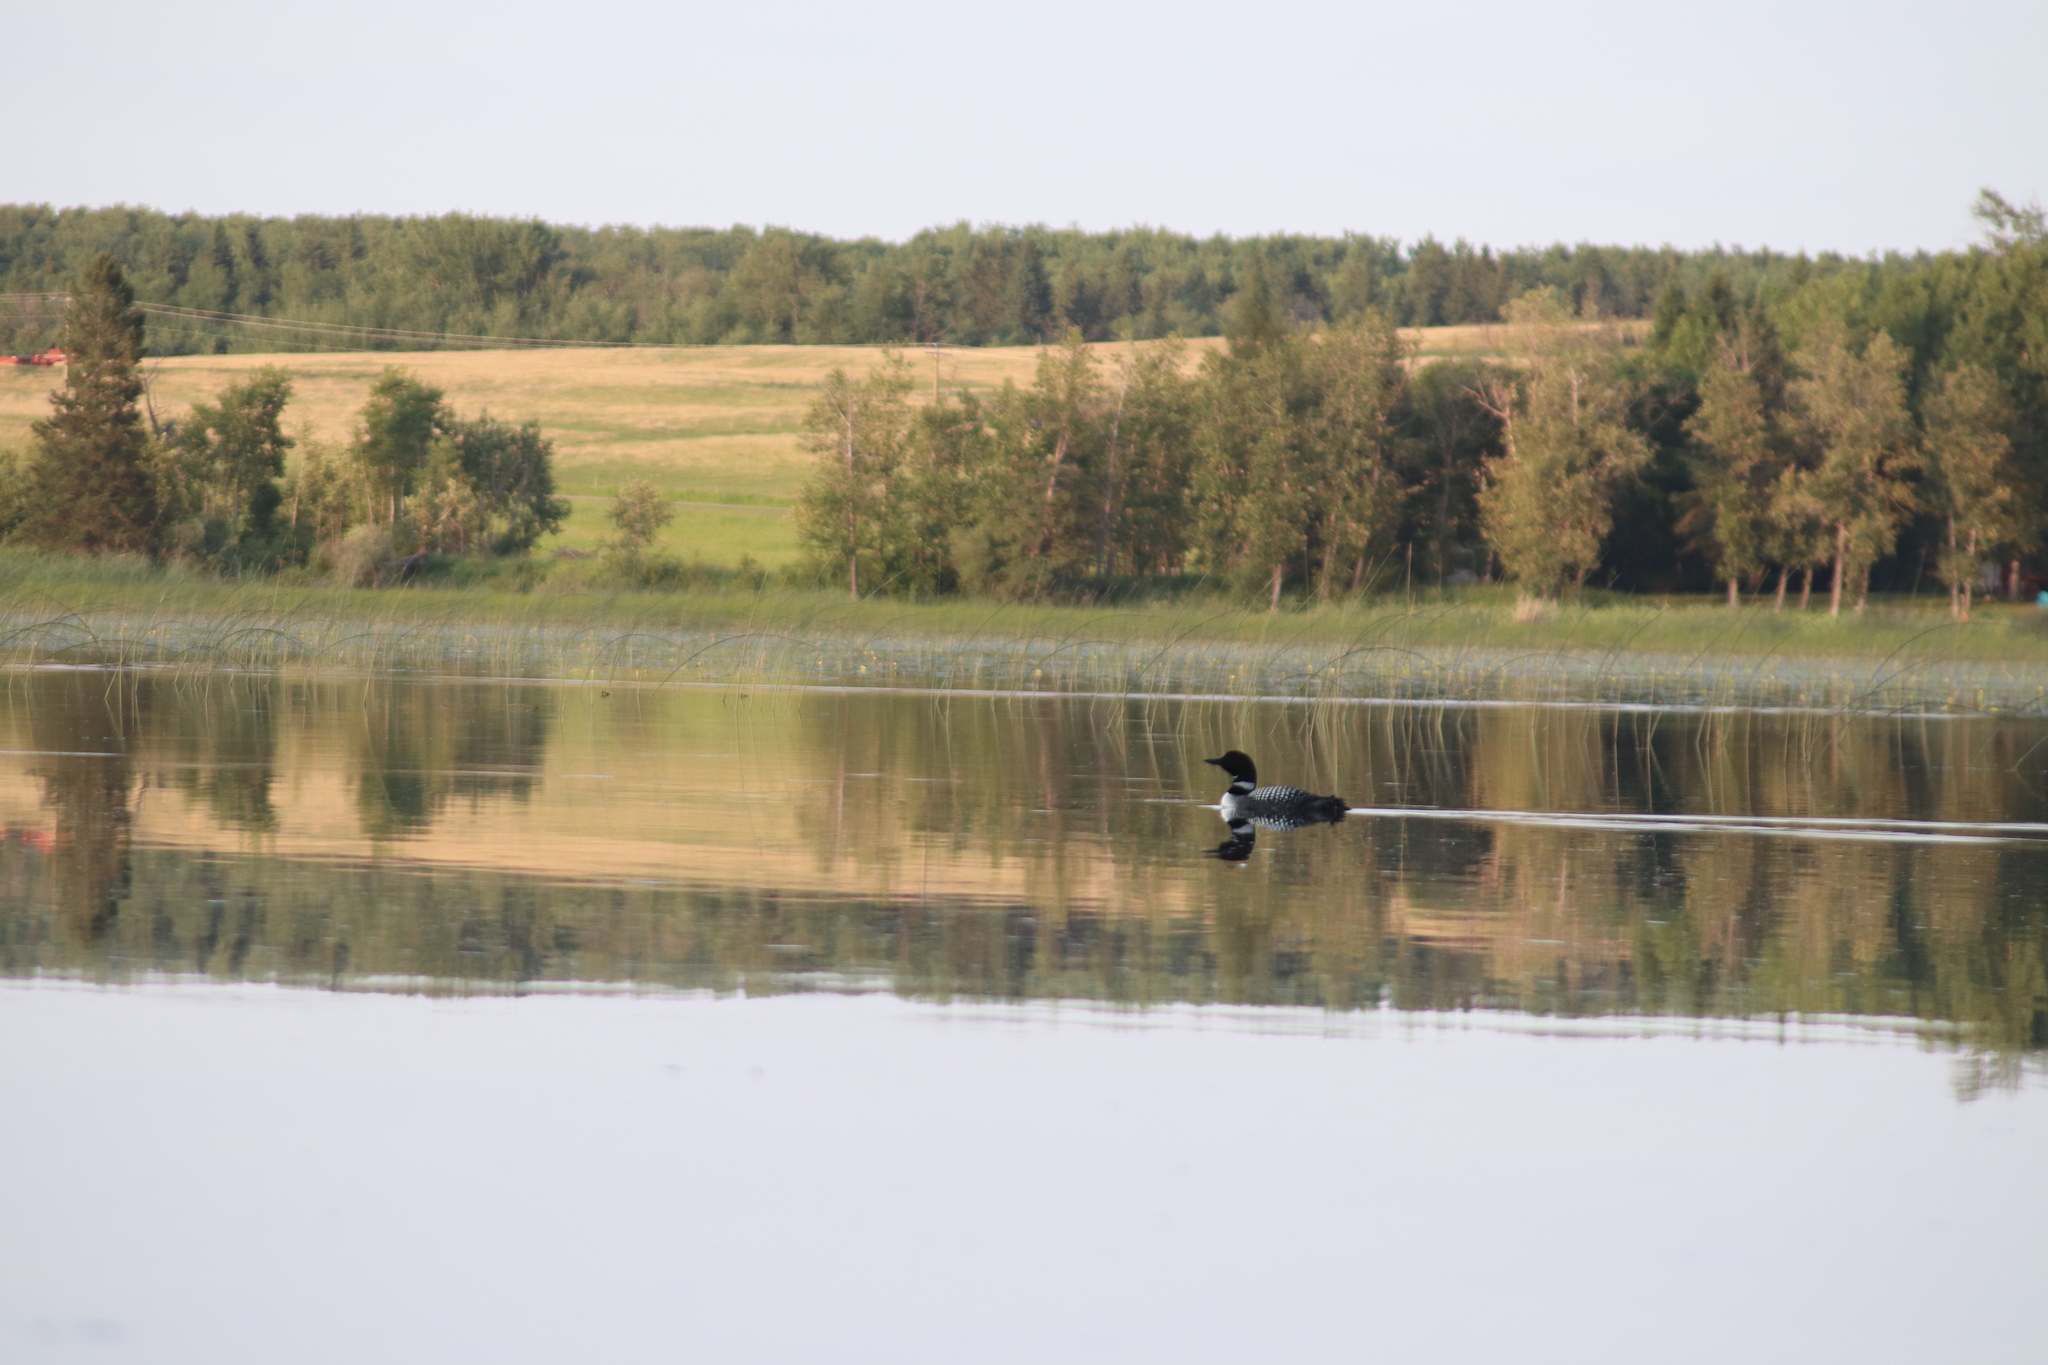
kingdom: Animalia
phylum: Chordata
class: Aves
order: Gaviiformes
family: Gaviidae
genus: Gavia
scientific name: Gavia immer
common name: Common loon
